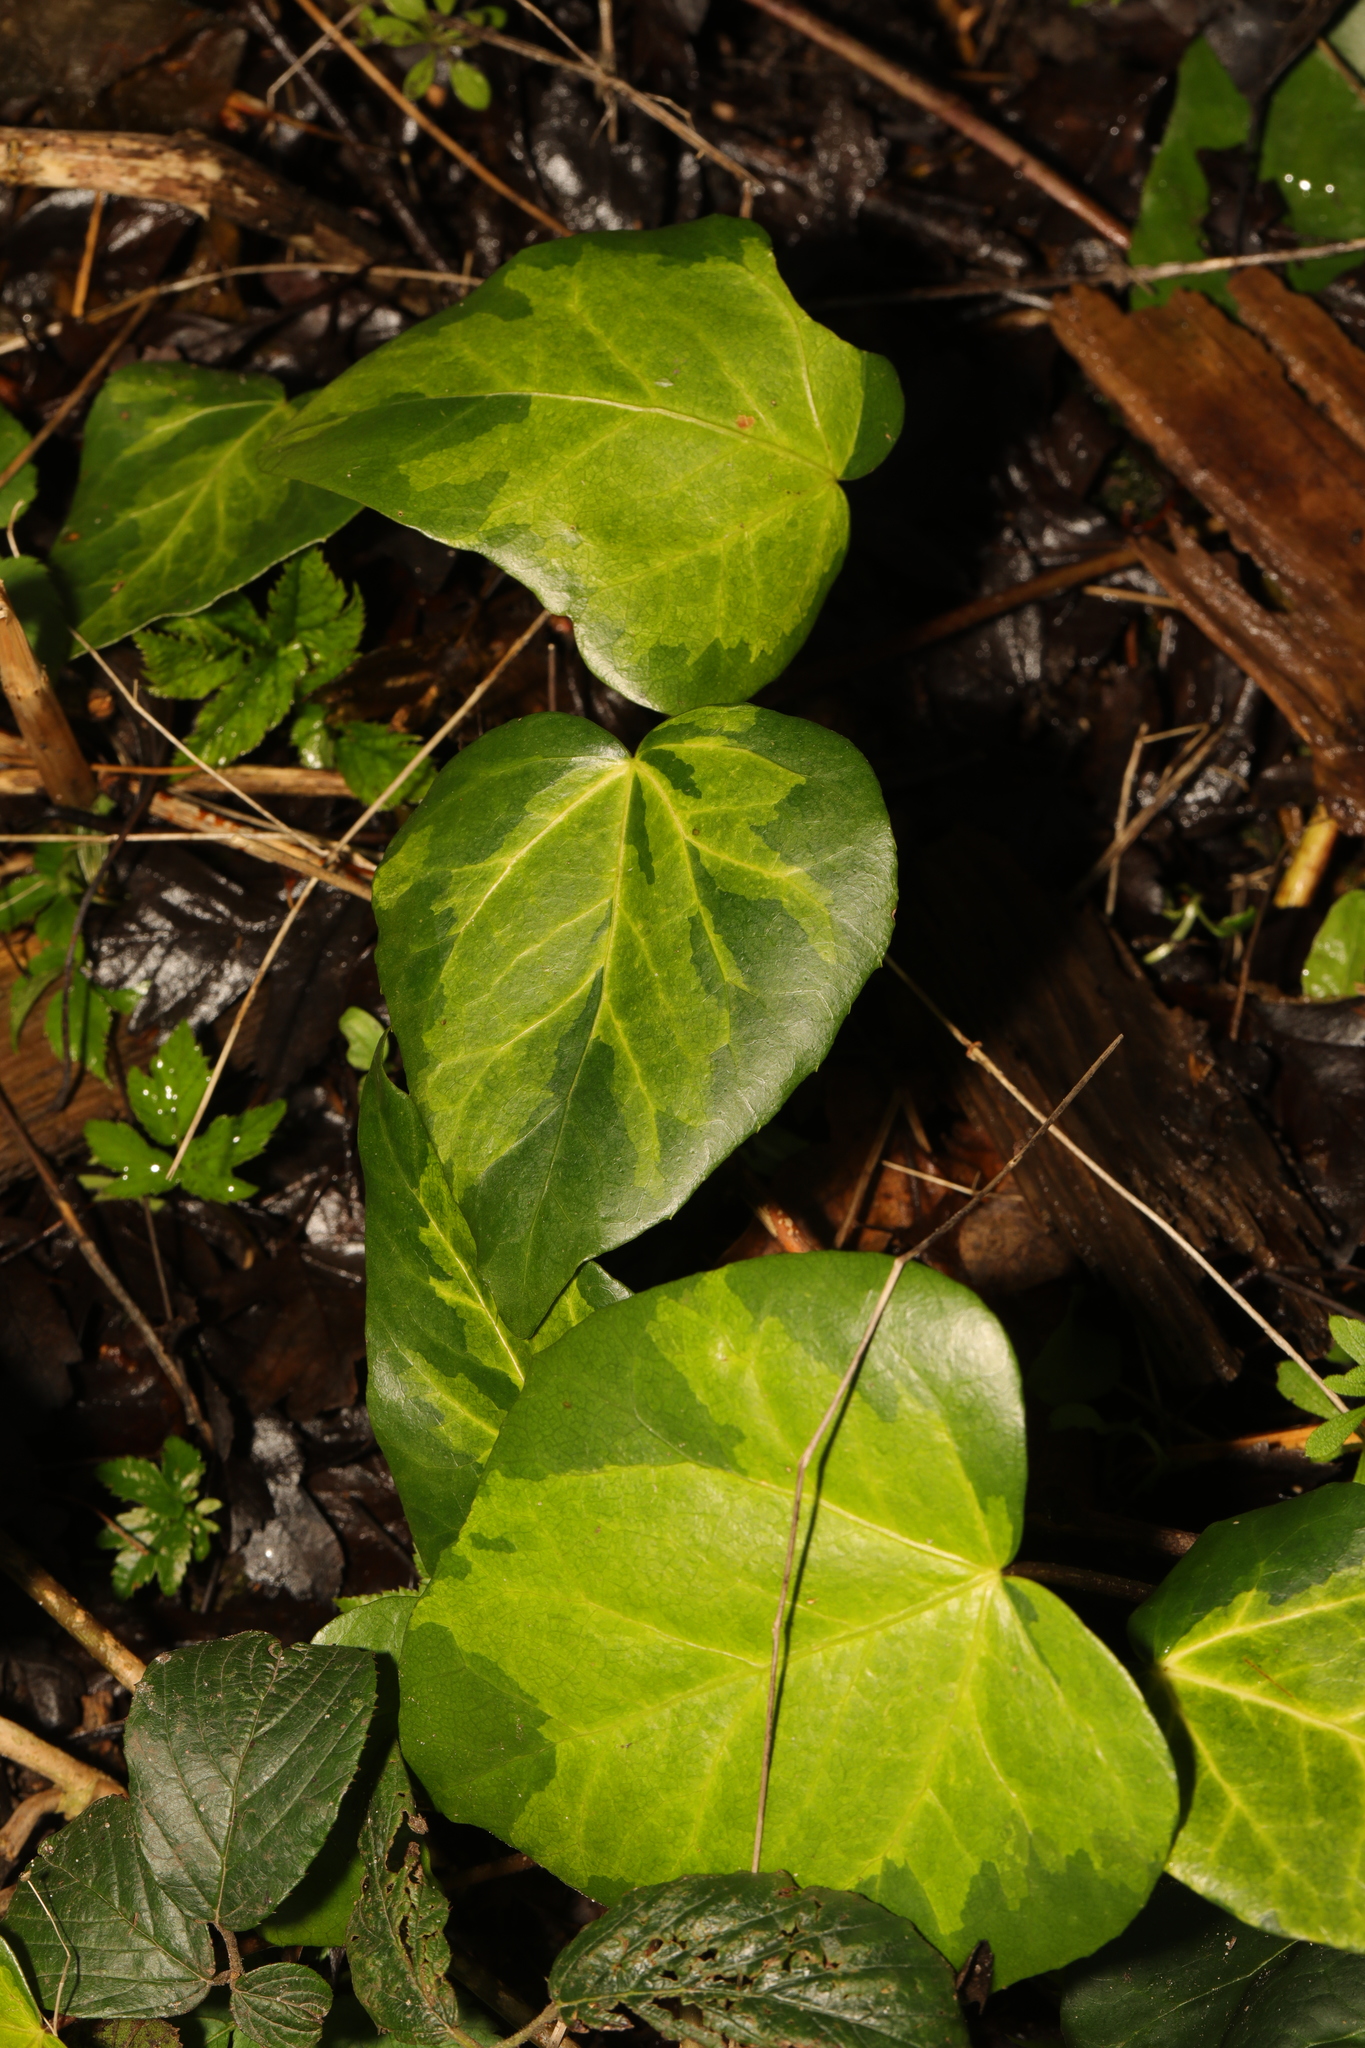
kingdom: Plantae
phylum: Tracheophyta
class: Magnoliopsida
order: Apiales
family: Araliaceae
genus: Hedera
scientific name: Hedera colchica
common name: Persian ivy
